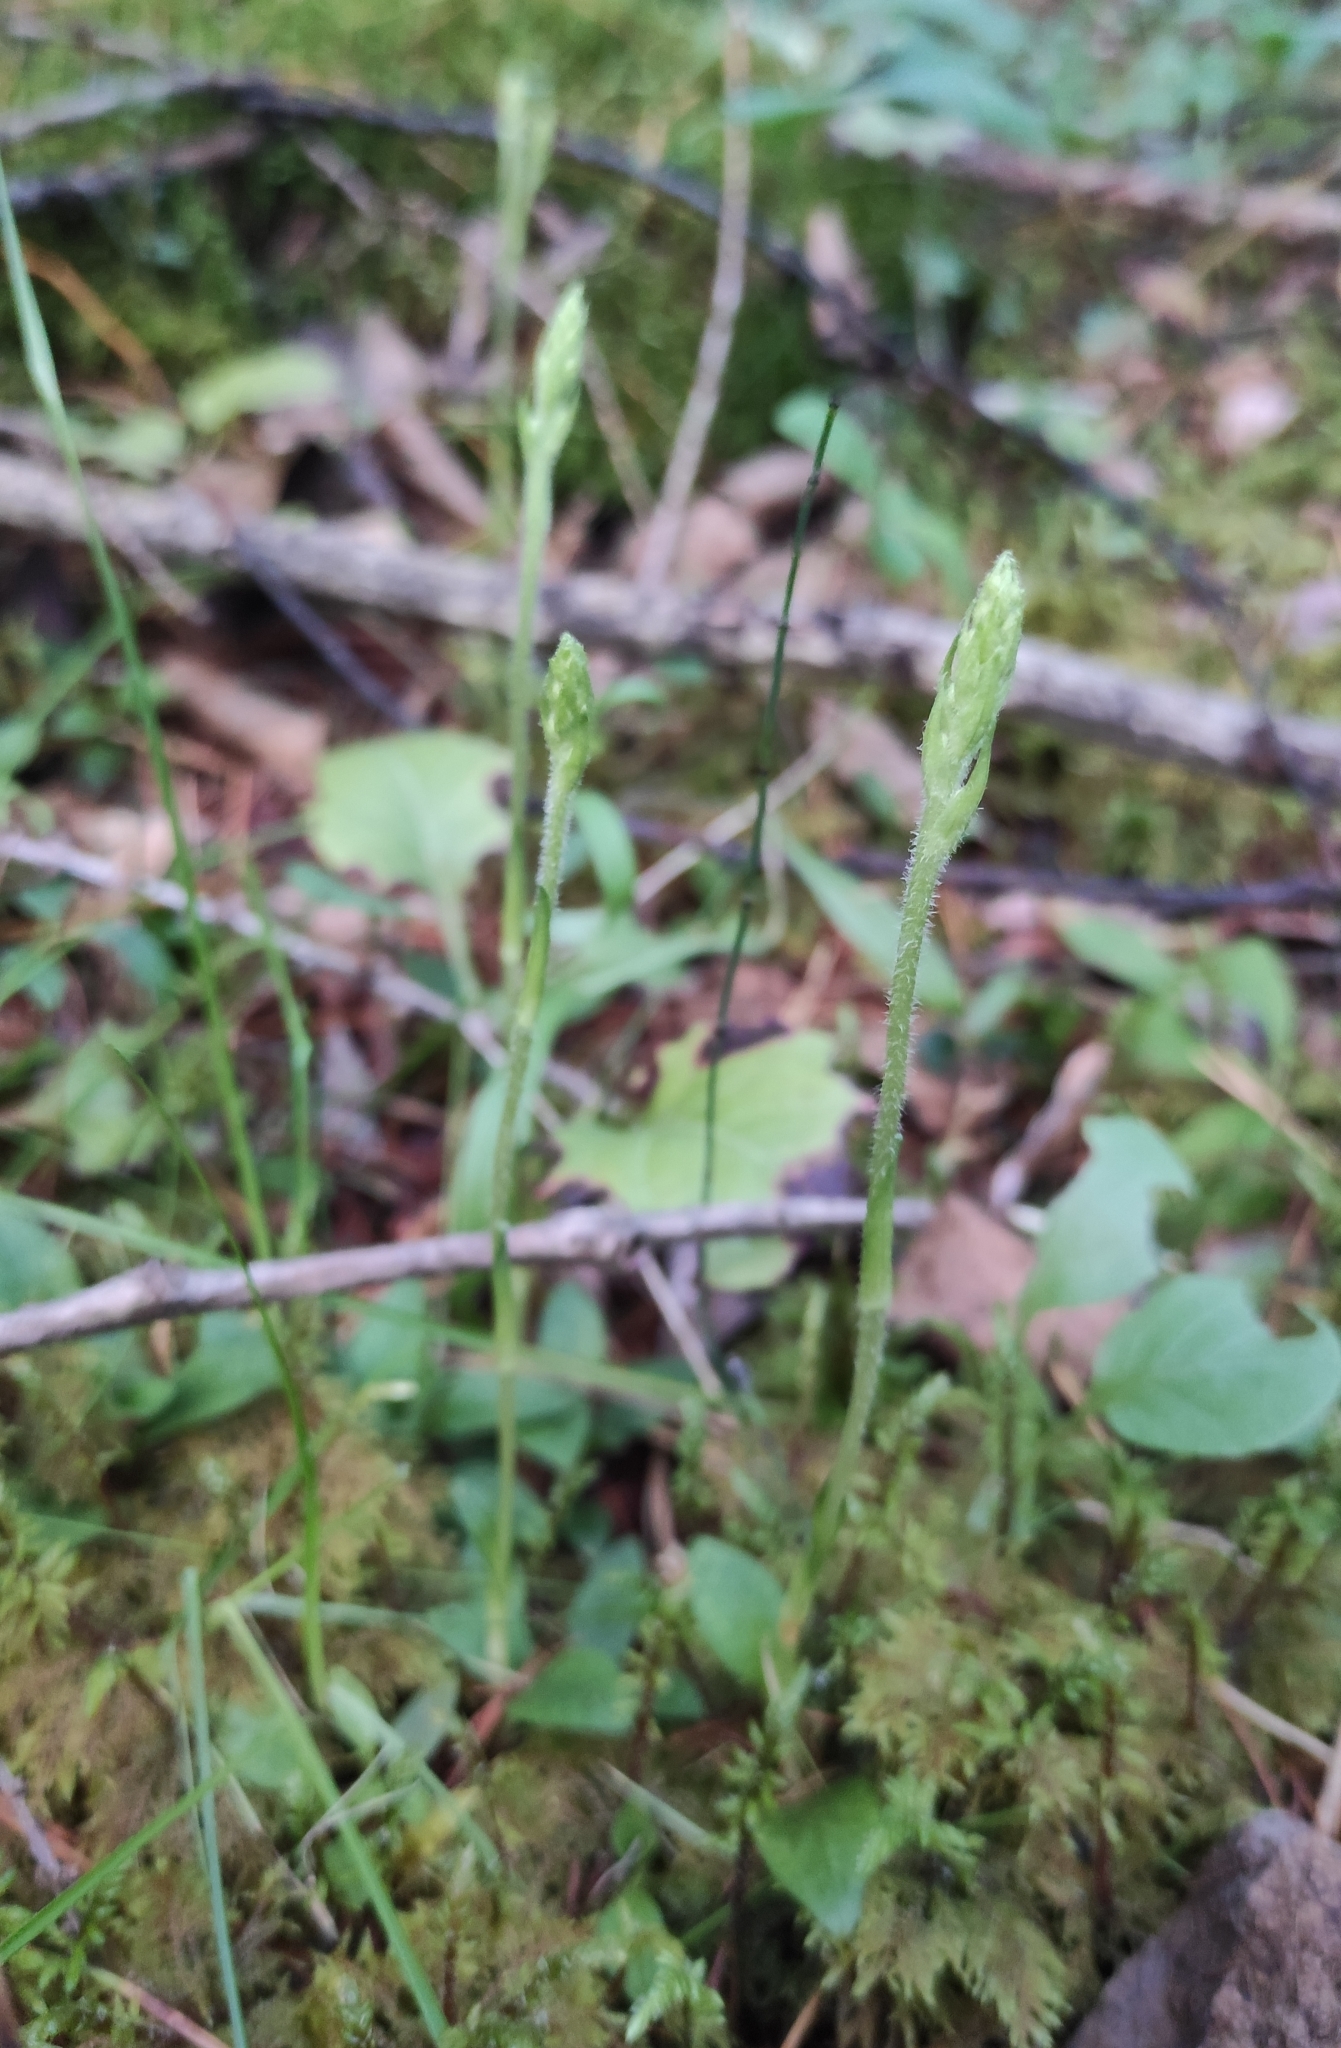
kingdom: Plantae
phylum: Tracheophyta
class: Liliopsida
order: Asparagales
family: Orchidaceae
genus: Goodyera
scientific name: Goodyera repens
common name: Creeping lady's-tresses
